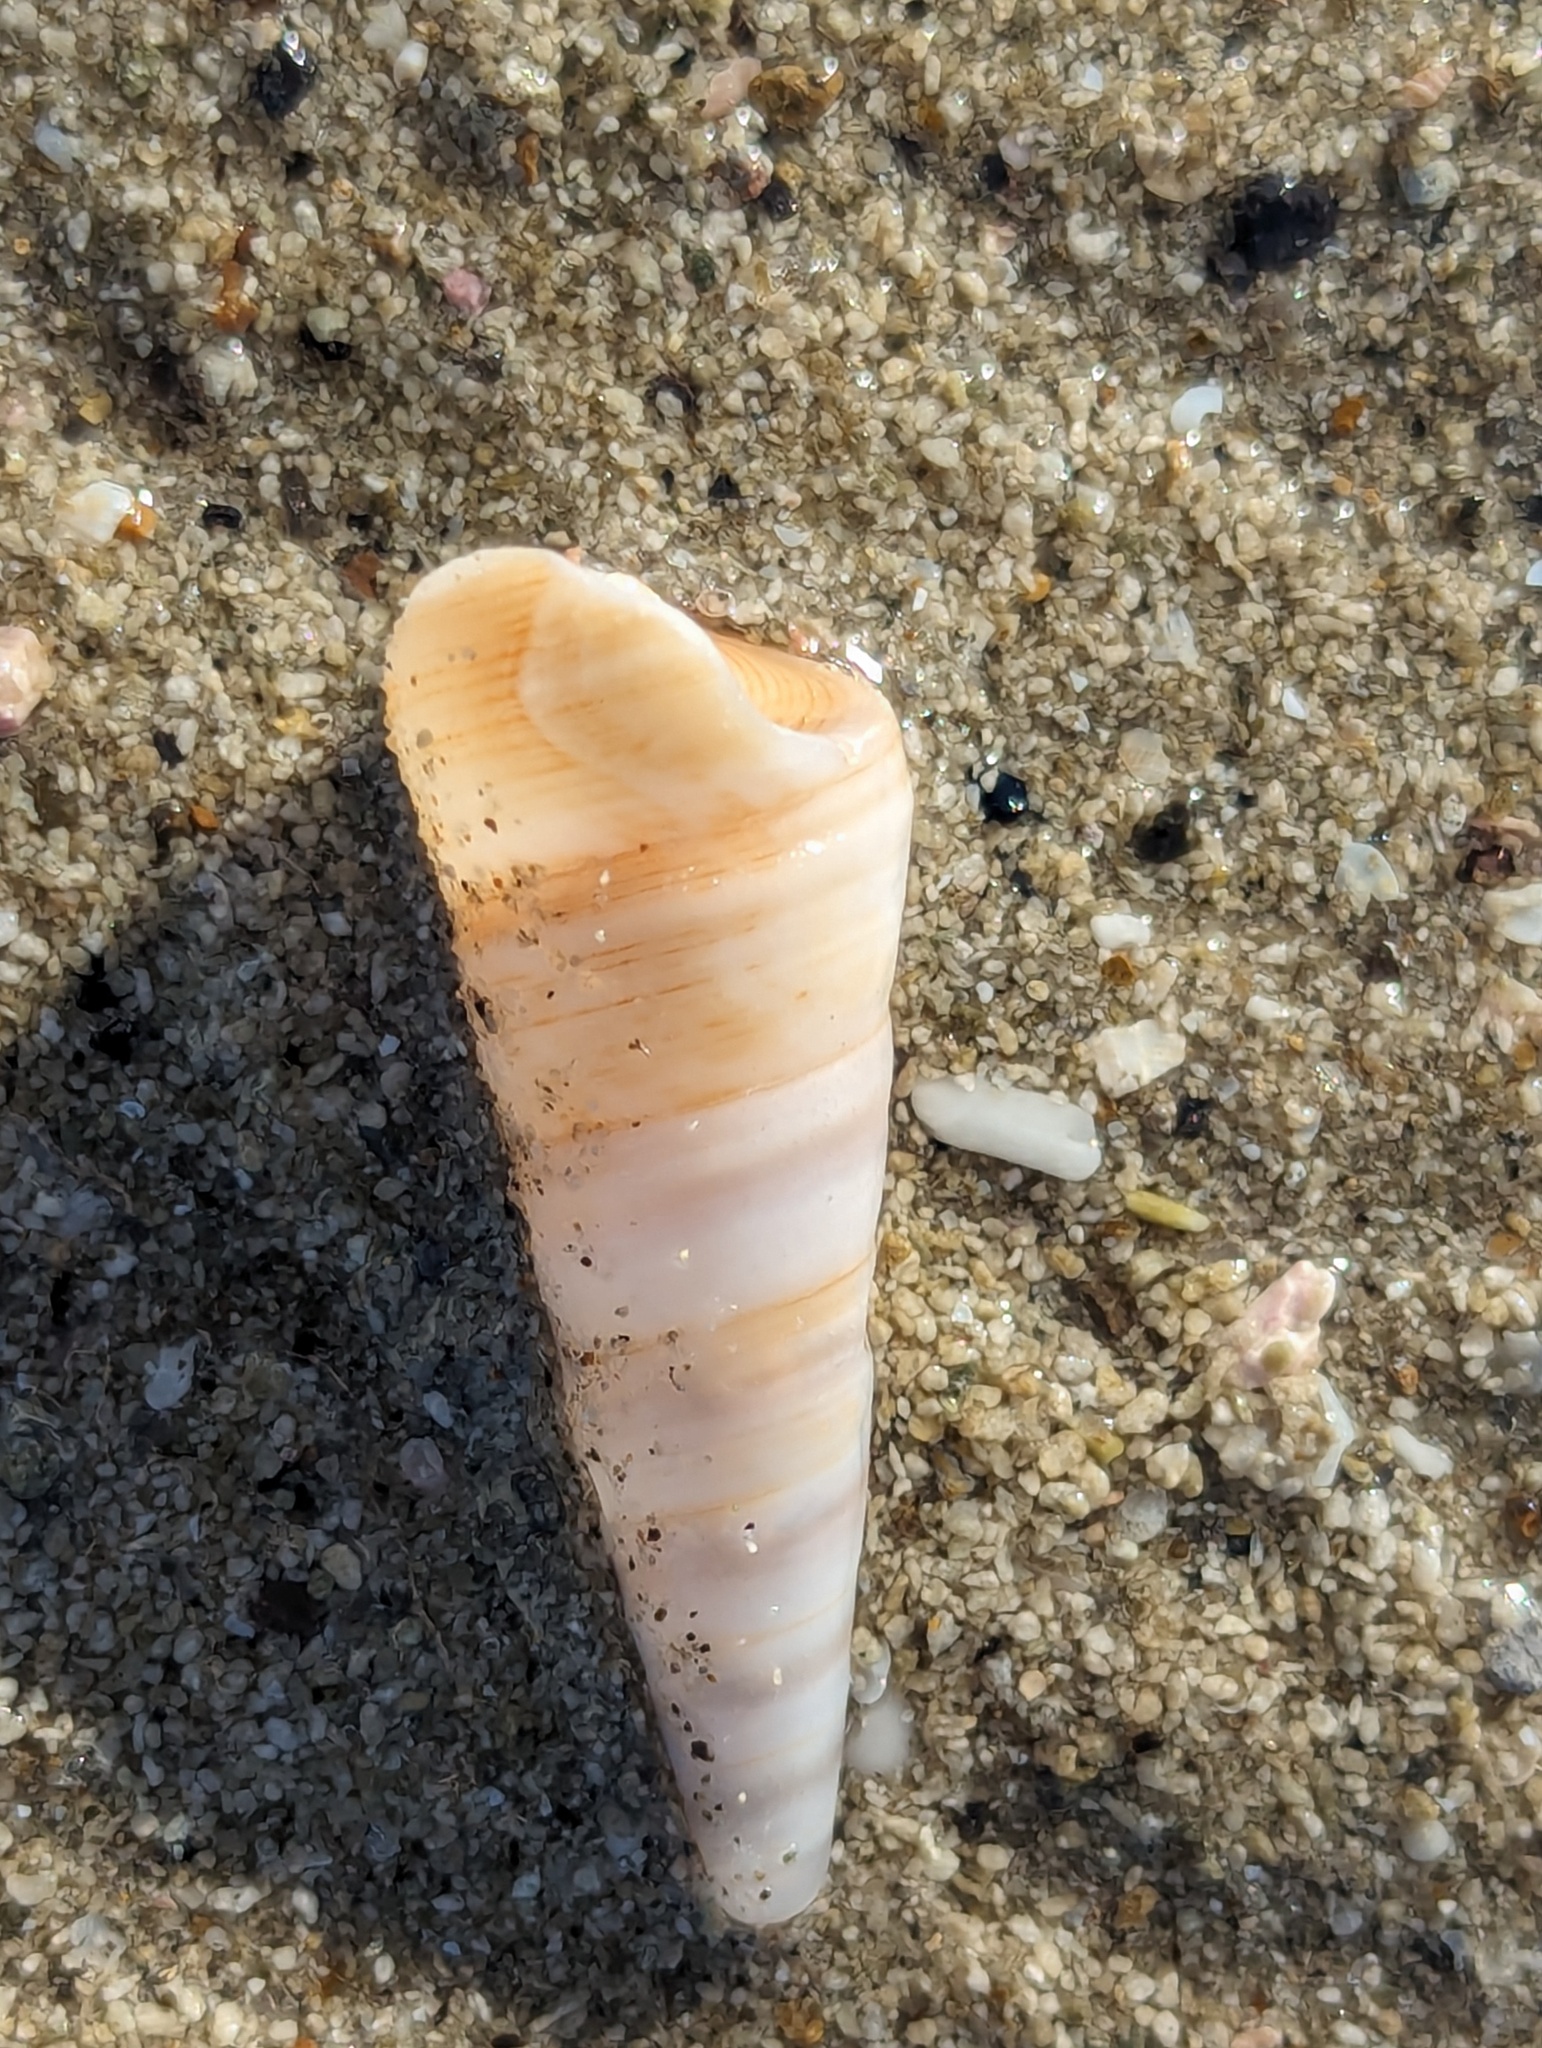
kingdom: Animalia
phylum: Mollusca
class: Gastropoda
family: Turritellidae
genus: Maoricolpus
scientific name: Maoricolpus roseus
